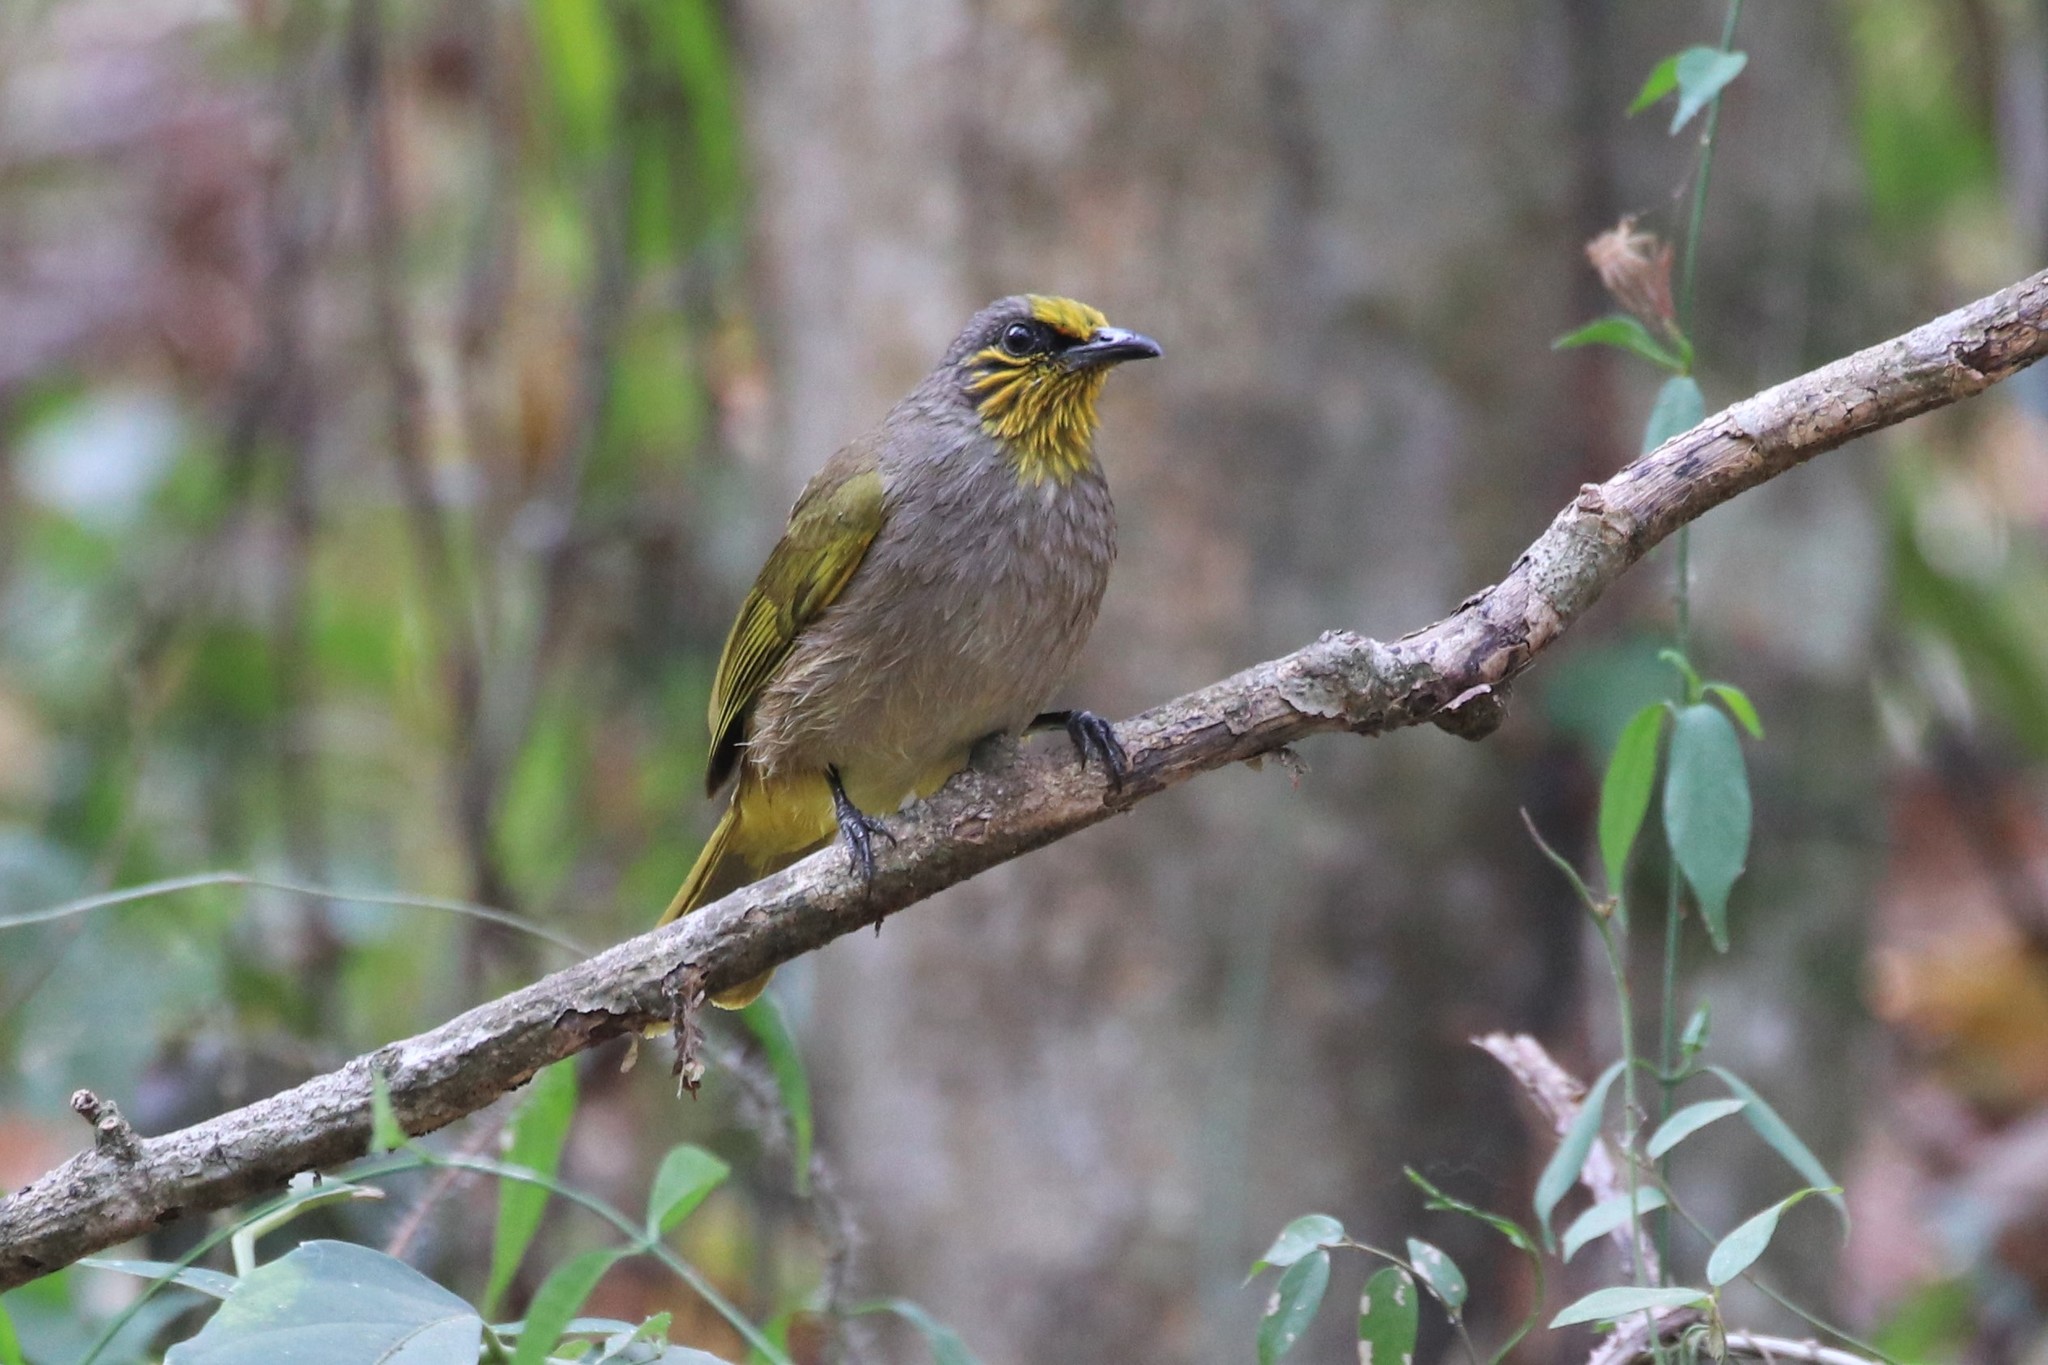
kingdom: Animalia
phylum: Chordata
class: Aves
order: Passeriformes
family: Pycnonotidae
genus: Pycnonotus
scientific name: Pycnonotus finlaysoni
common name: Stripe-throated bulbul
